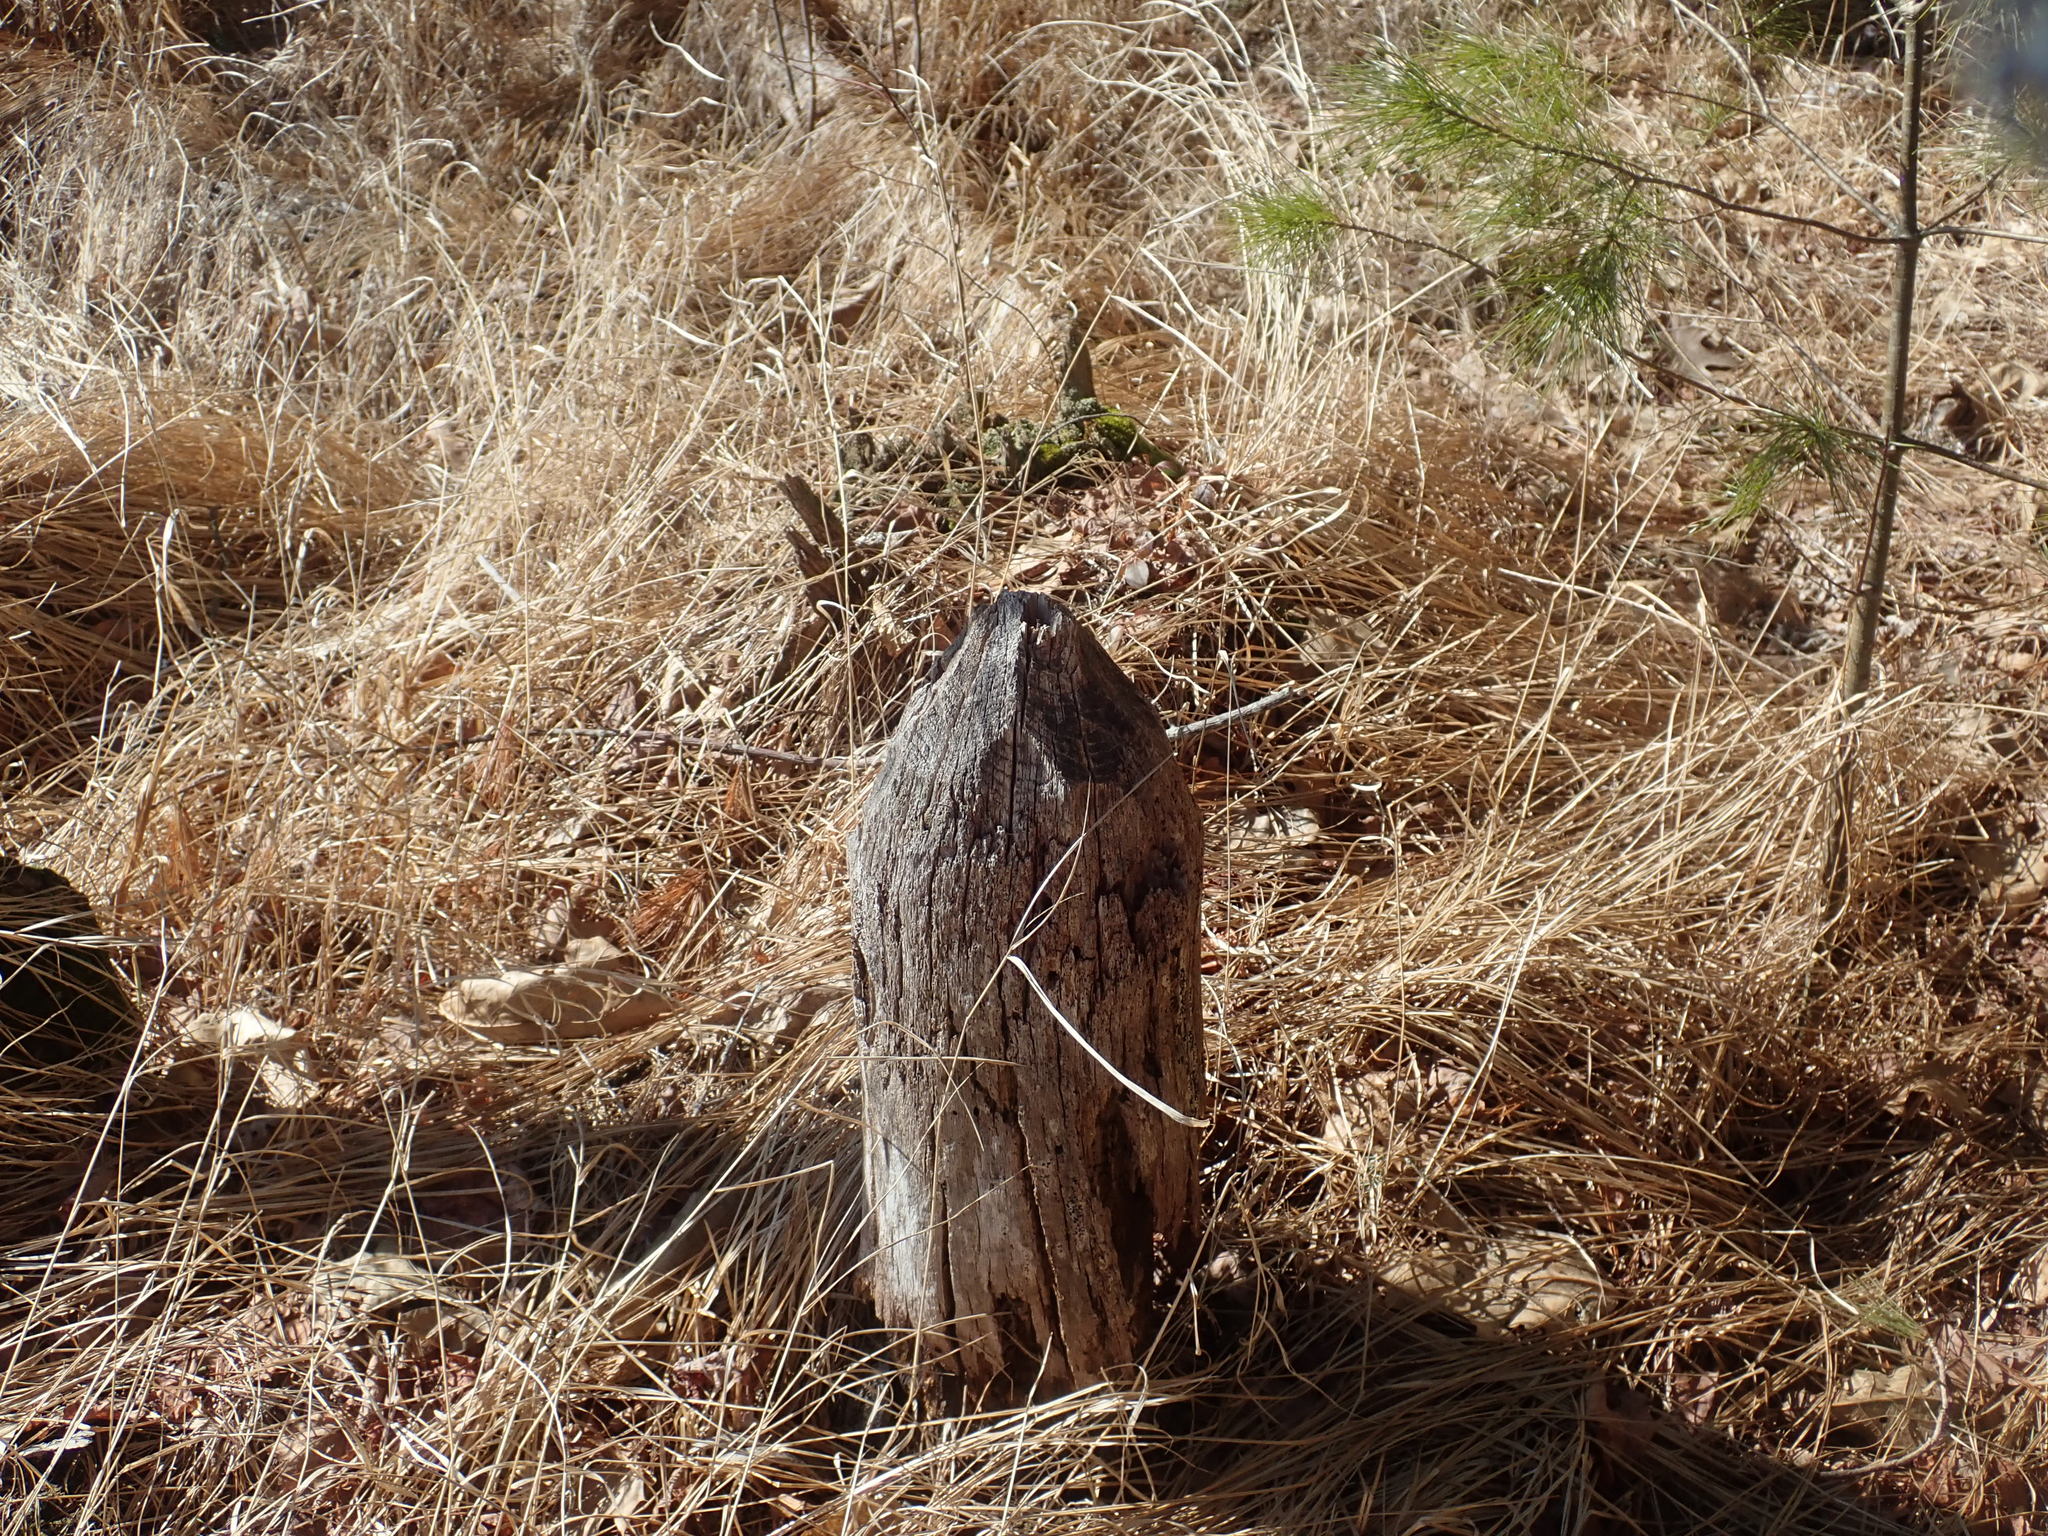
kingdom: Animalia
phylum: Chordata
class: Mammalia
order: Rodentia
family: Castoridae
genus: Castor
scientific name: Castor canadensis
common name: American beaver
